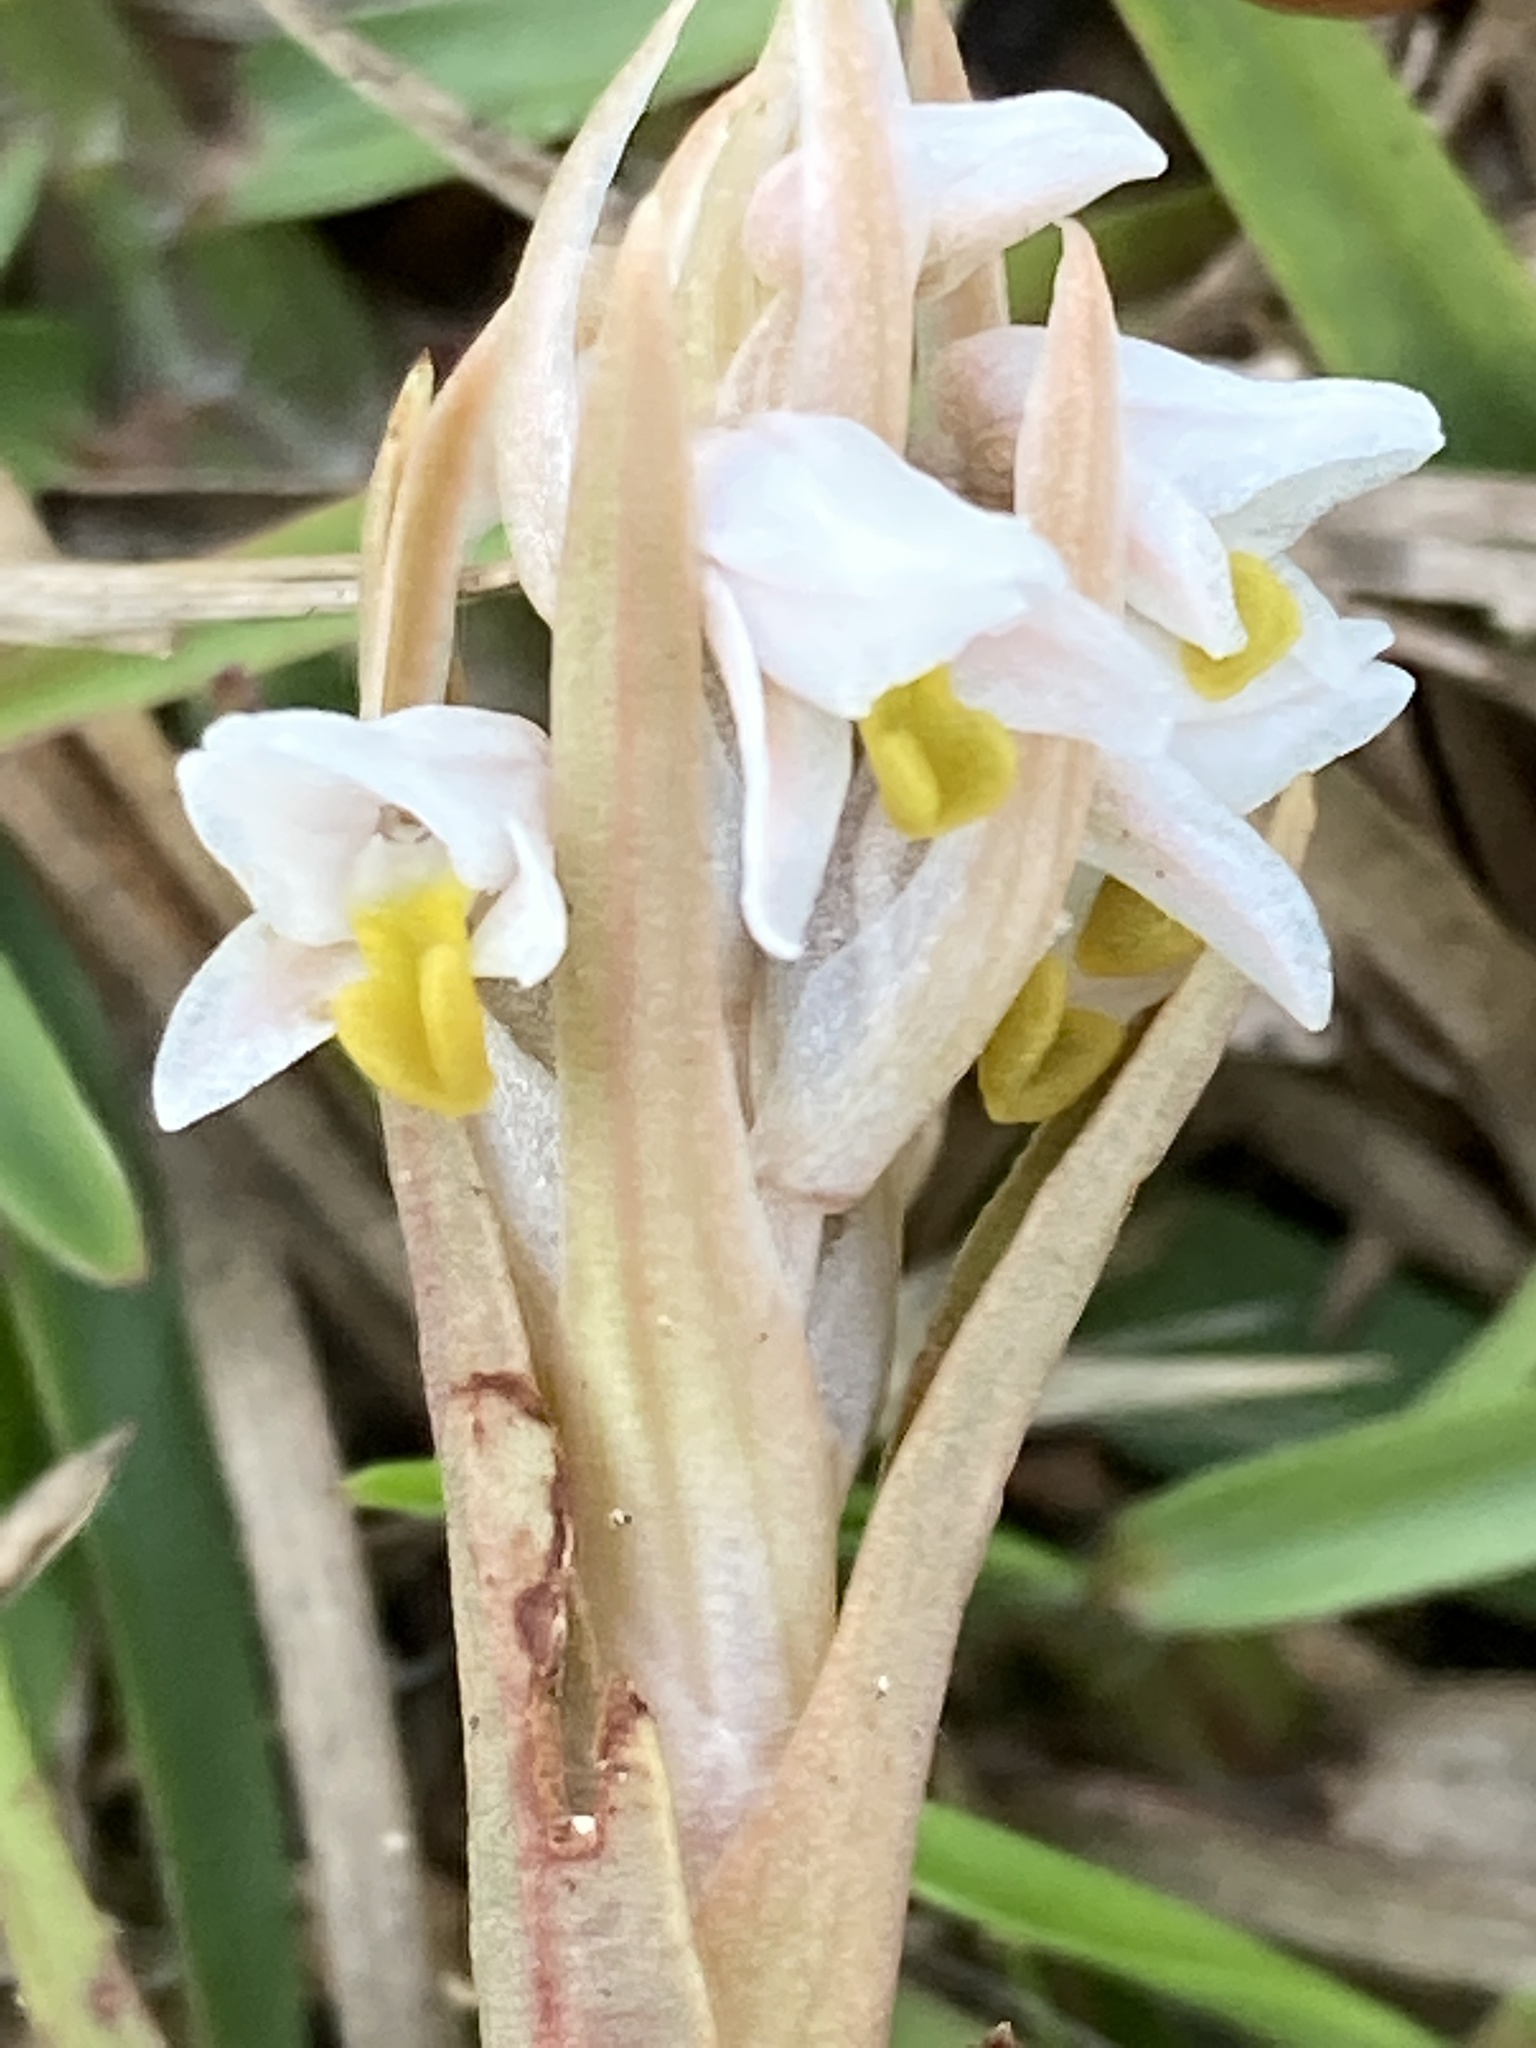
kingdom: Plantae
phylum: Tracheophyta
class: Liliopsida
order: Asparagales
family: Orchidaceae
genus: Zeuxine
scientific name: Zeuxine strateumatica
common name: Soldier's orchid
